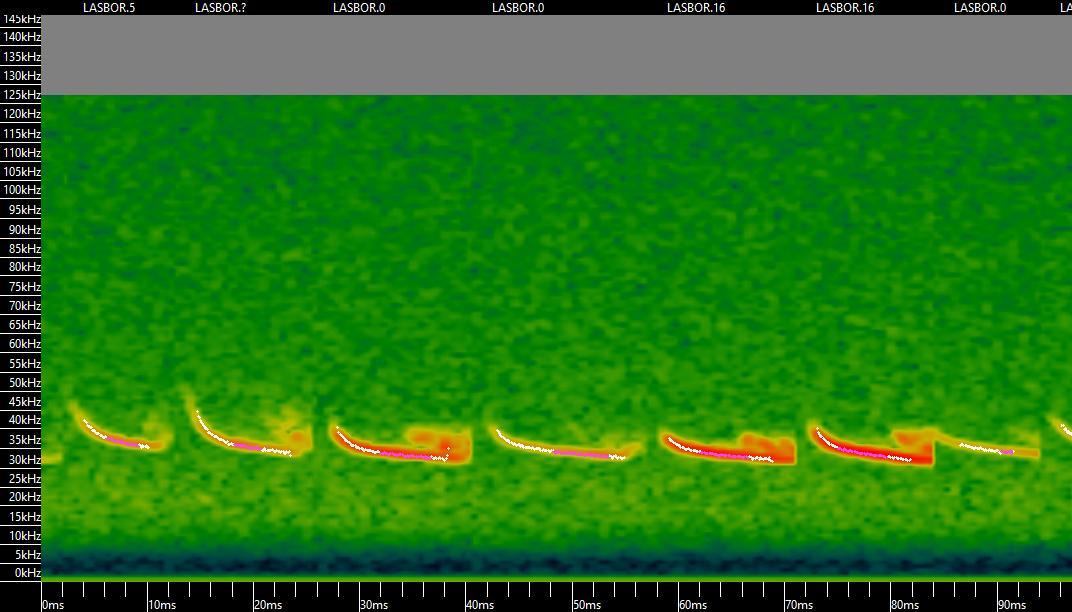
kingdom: Animalia
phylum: Chordata
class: Mammalia
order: Chiroptera
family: Vespertilionidae
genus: Lasiurus
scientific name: Lasiurus borealis
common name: Eastern red bat
